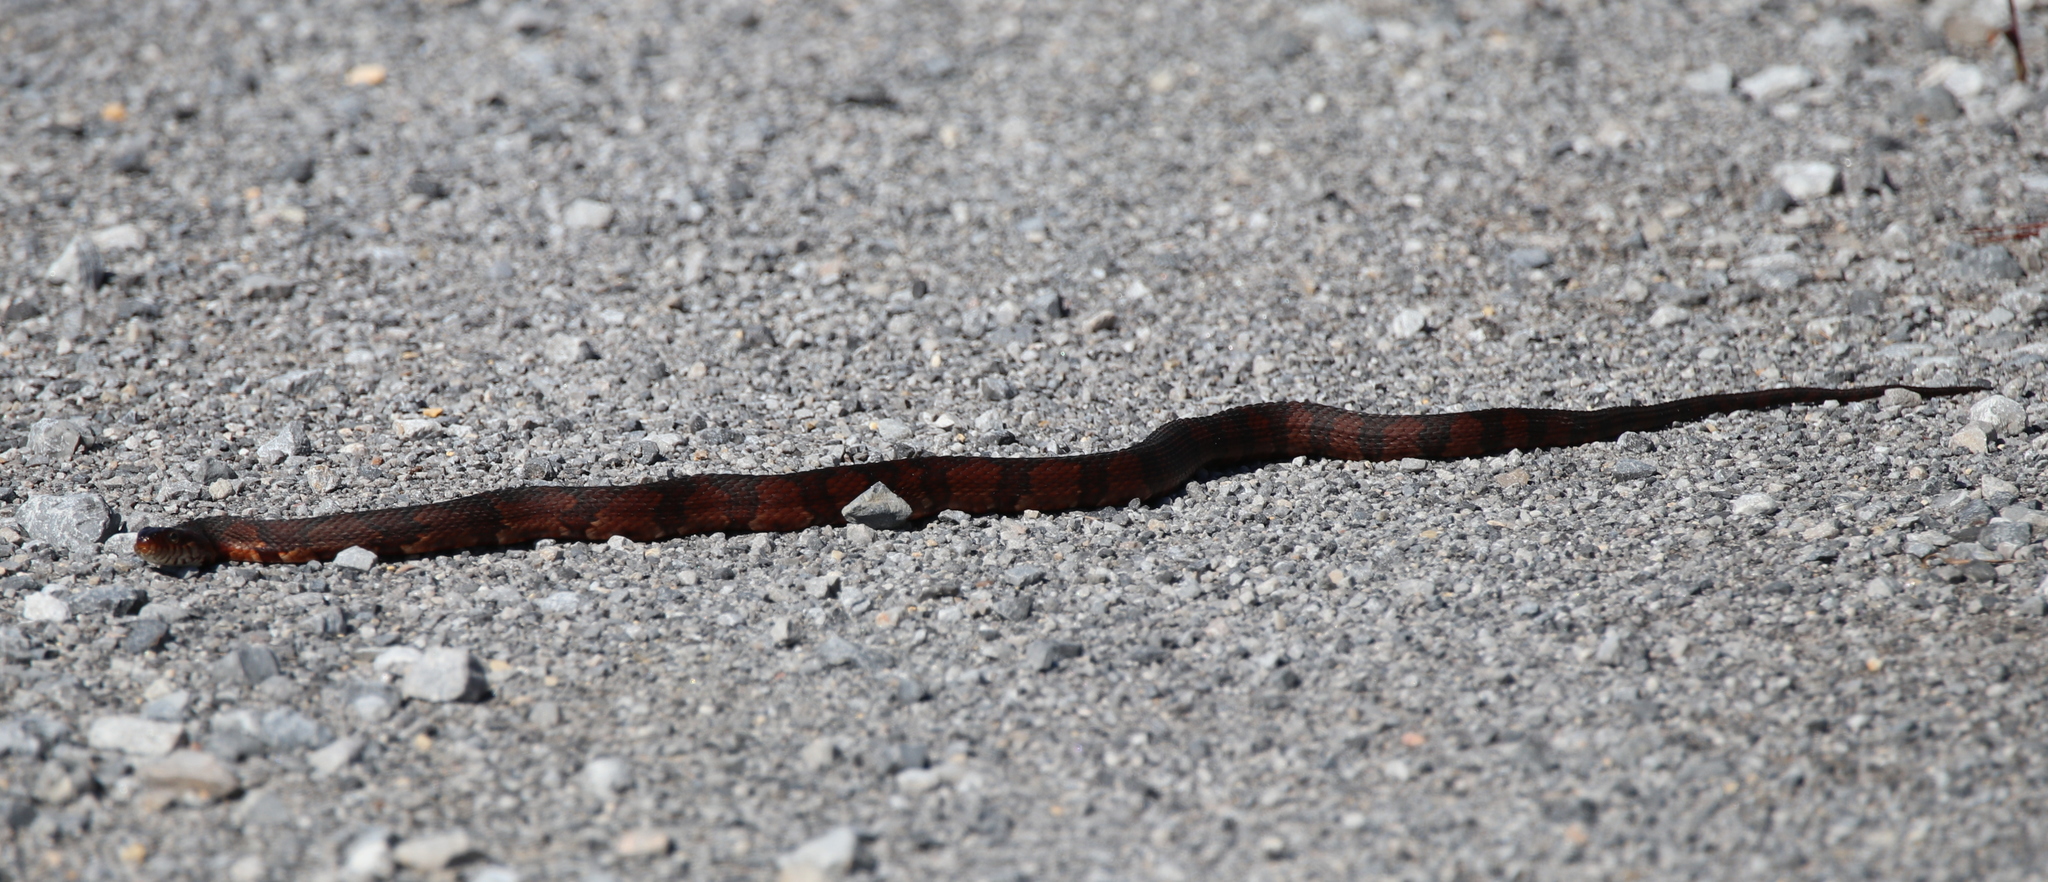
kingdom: Animalia
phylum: Chordata
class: Squamata
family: Colubridae
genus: Nerodia
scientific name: Nerodia fasciata
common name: Southern water snake
